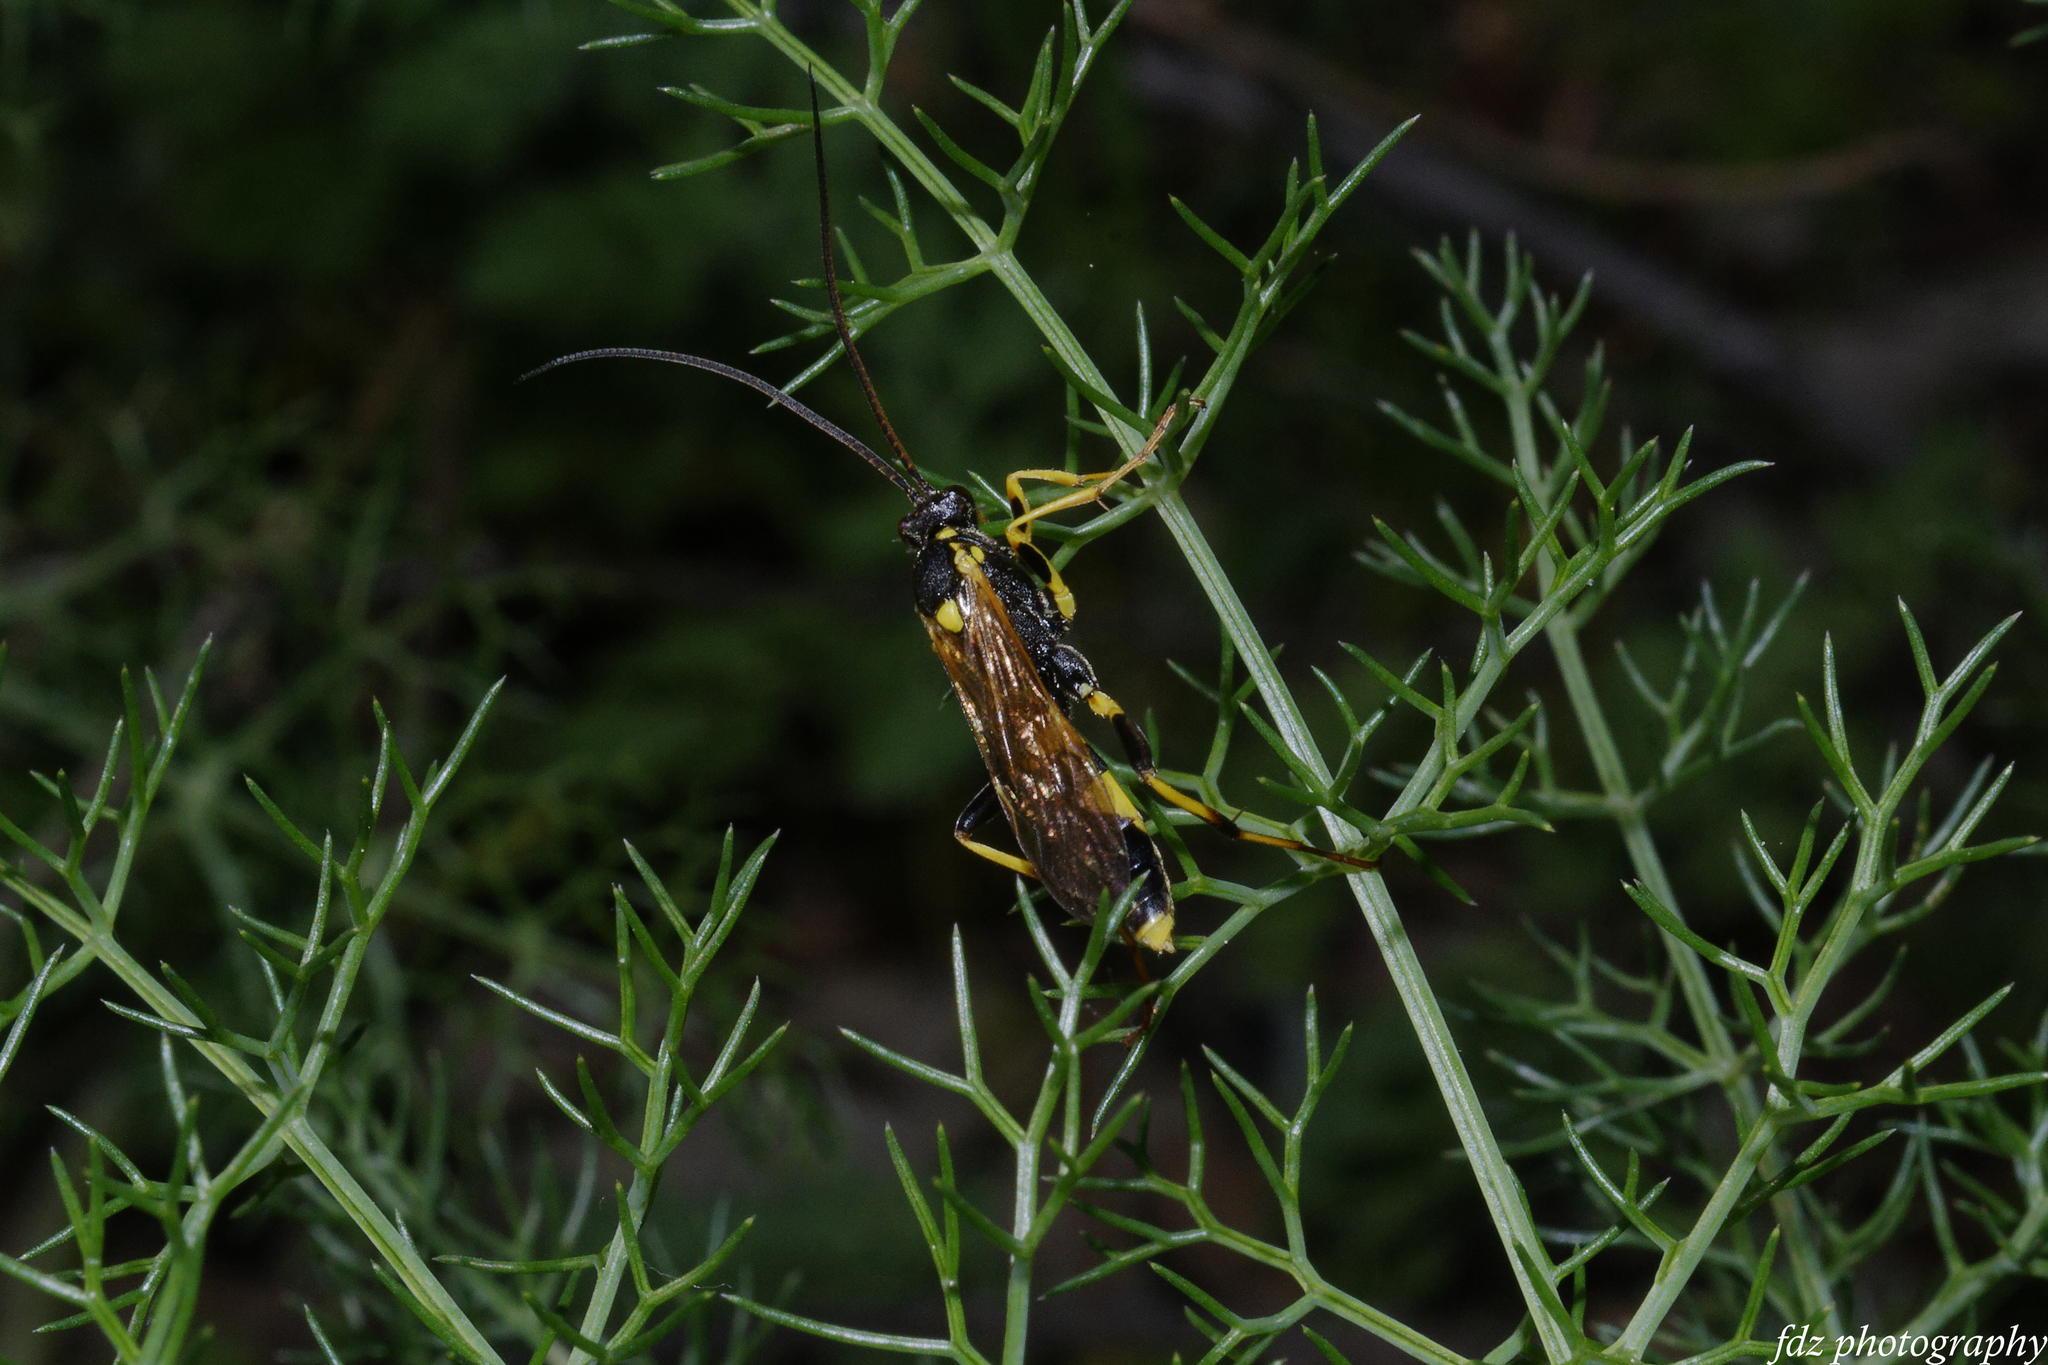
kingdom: Animalia
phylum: Arthropoda
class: Insecta
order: Hymenoptera
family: Ichneumonidae
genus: Amblyteles
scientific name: Amblyteles armatorius
